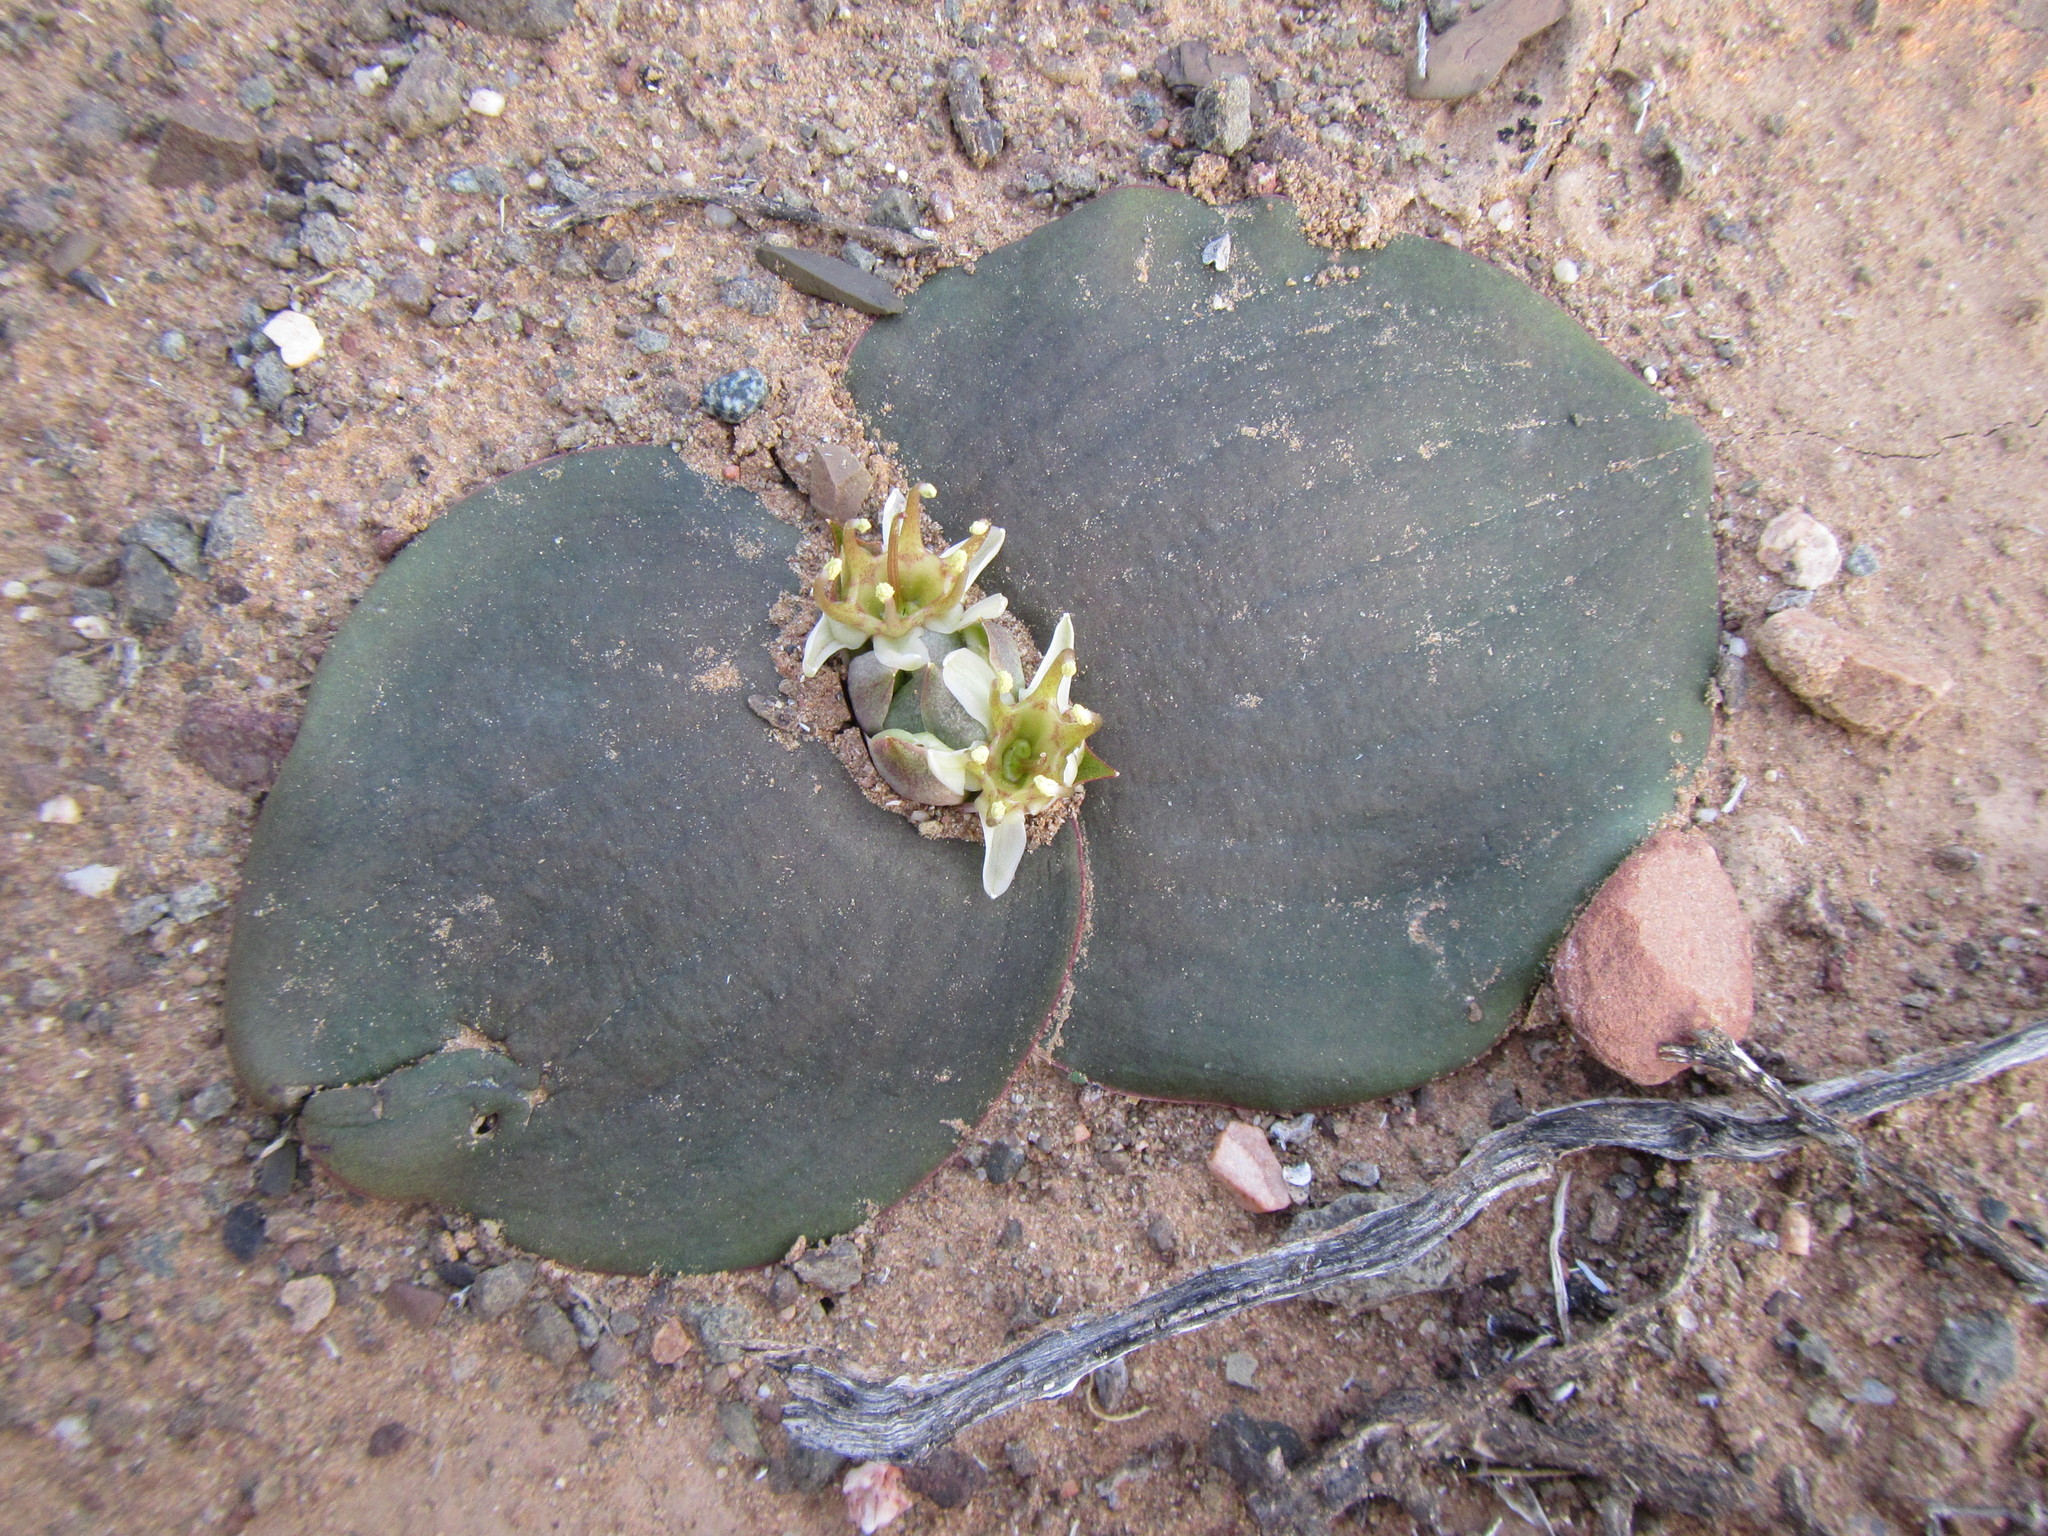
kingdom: Plantae
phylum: Tracheophyta
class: Liliopsida
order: Asparagales
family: Asparagaceae
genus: Massonia
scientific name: Massonia depressa
